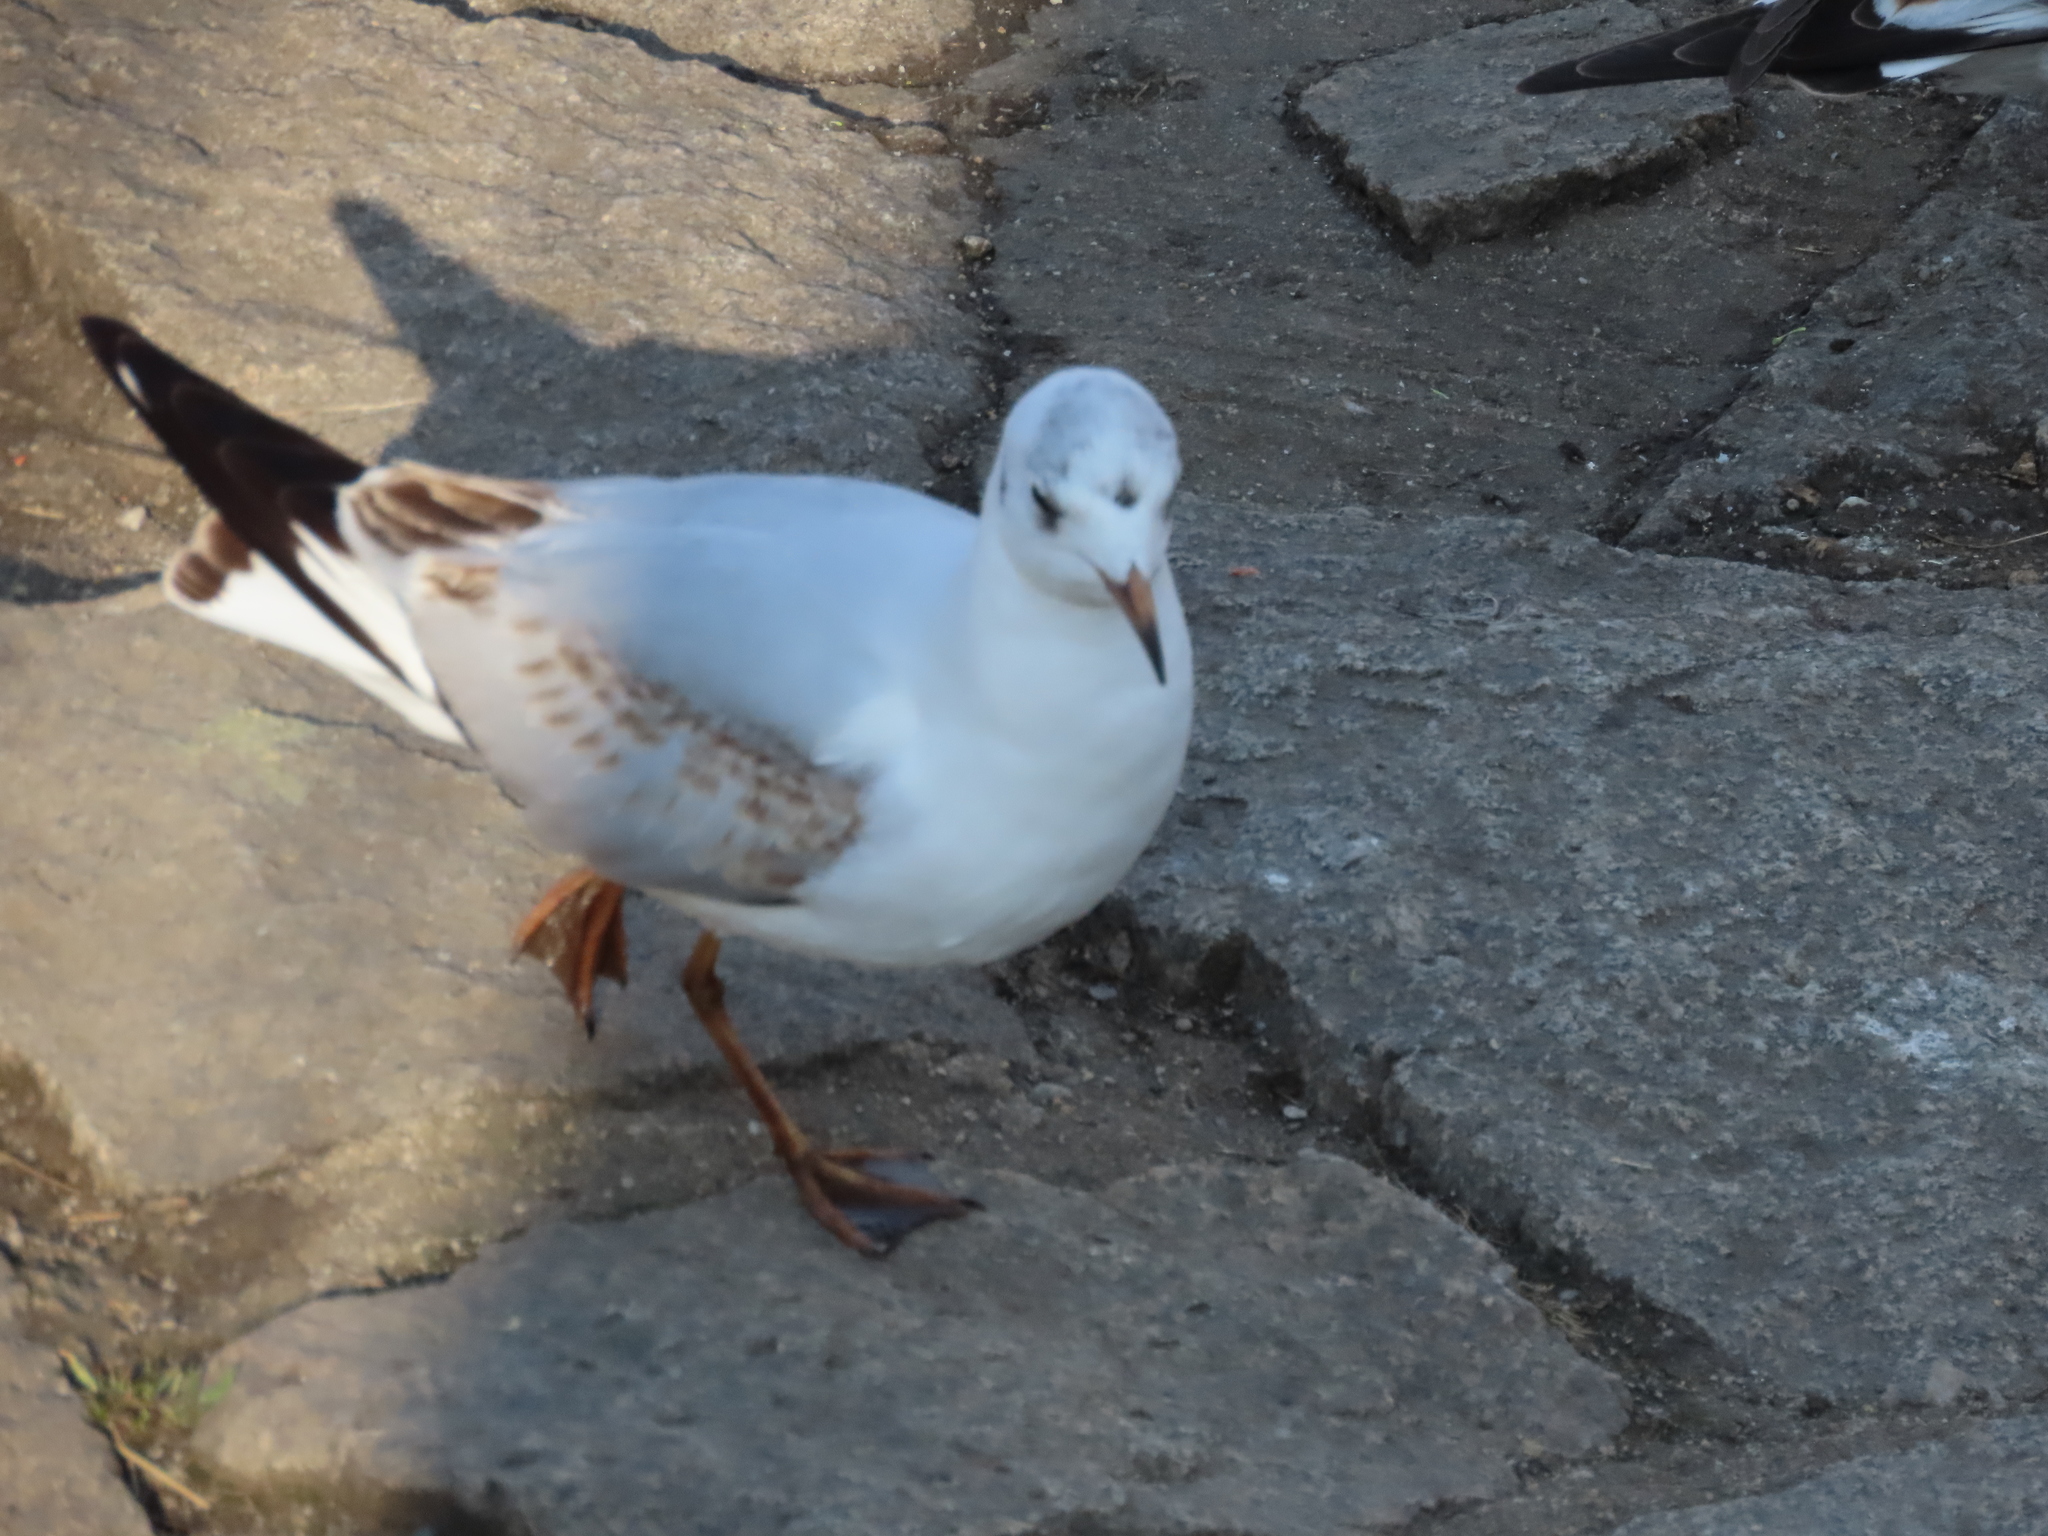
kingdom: Animalia
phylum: Chordata
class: Aves
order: Charadriiformes
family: Laridae
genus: Chroicocephalus
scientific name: Chroicocephalus ridibundus
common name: Black-headed gull
